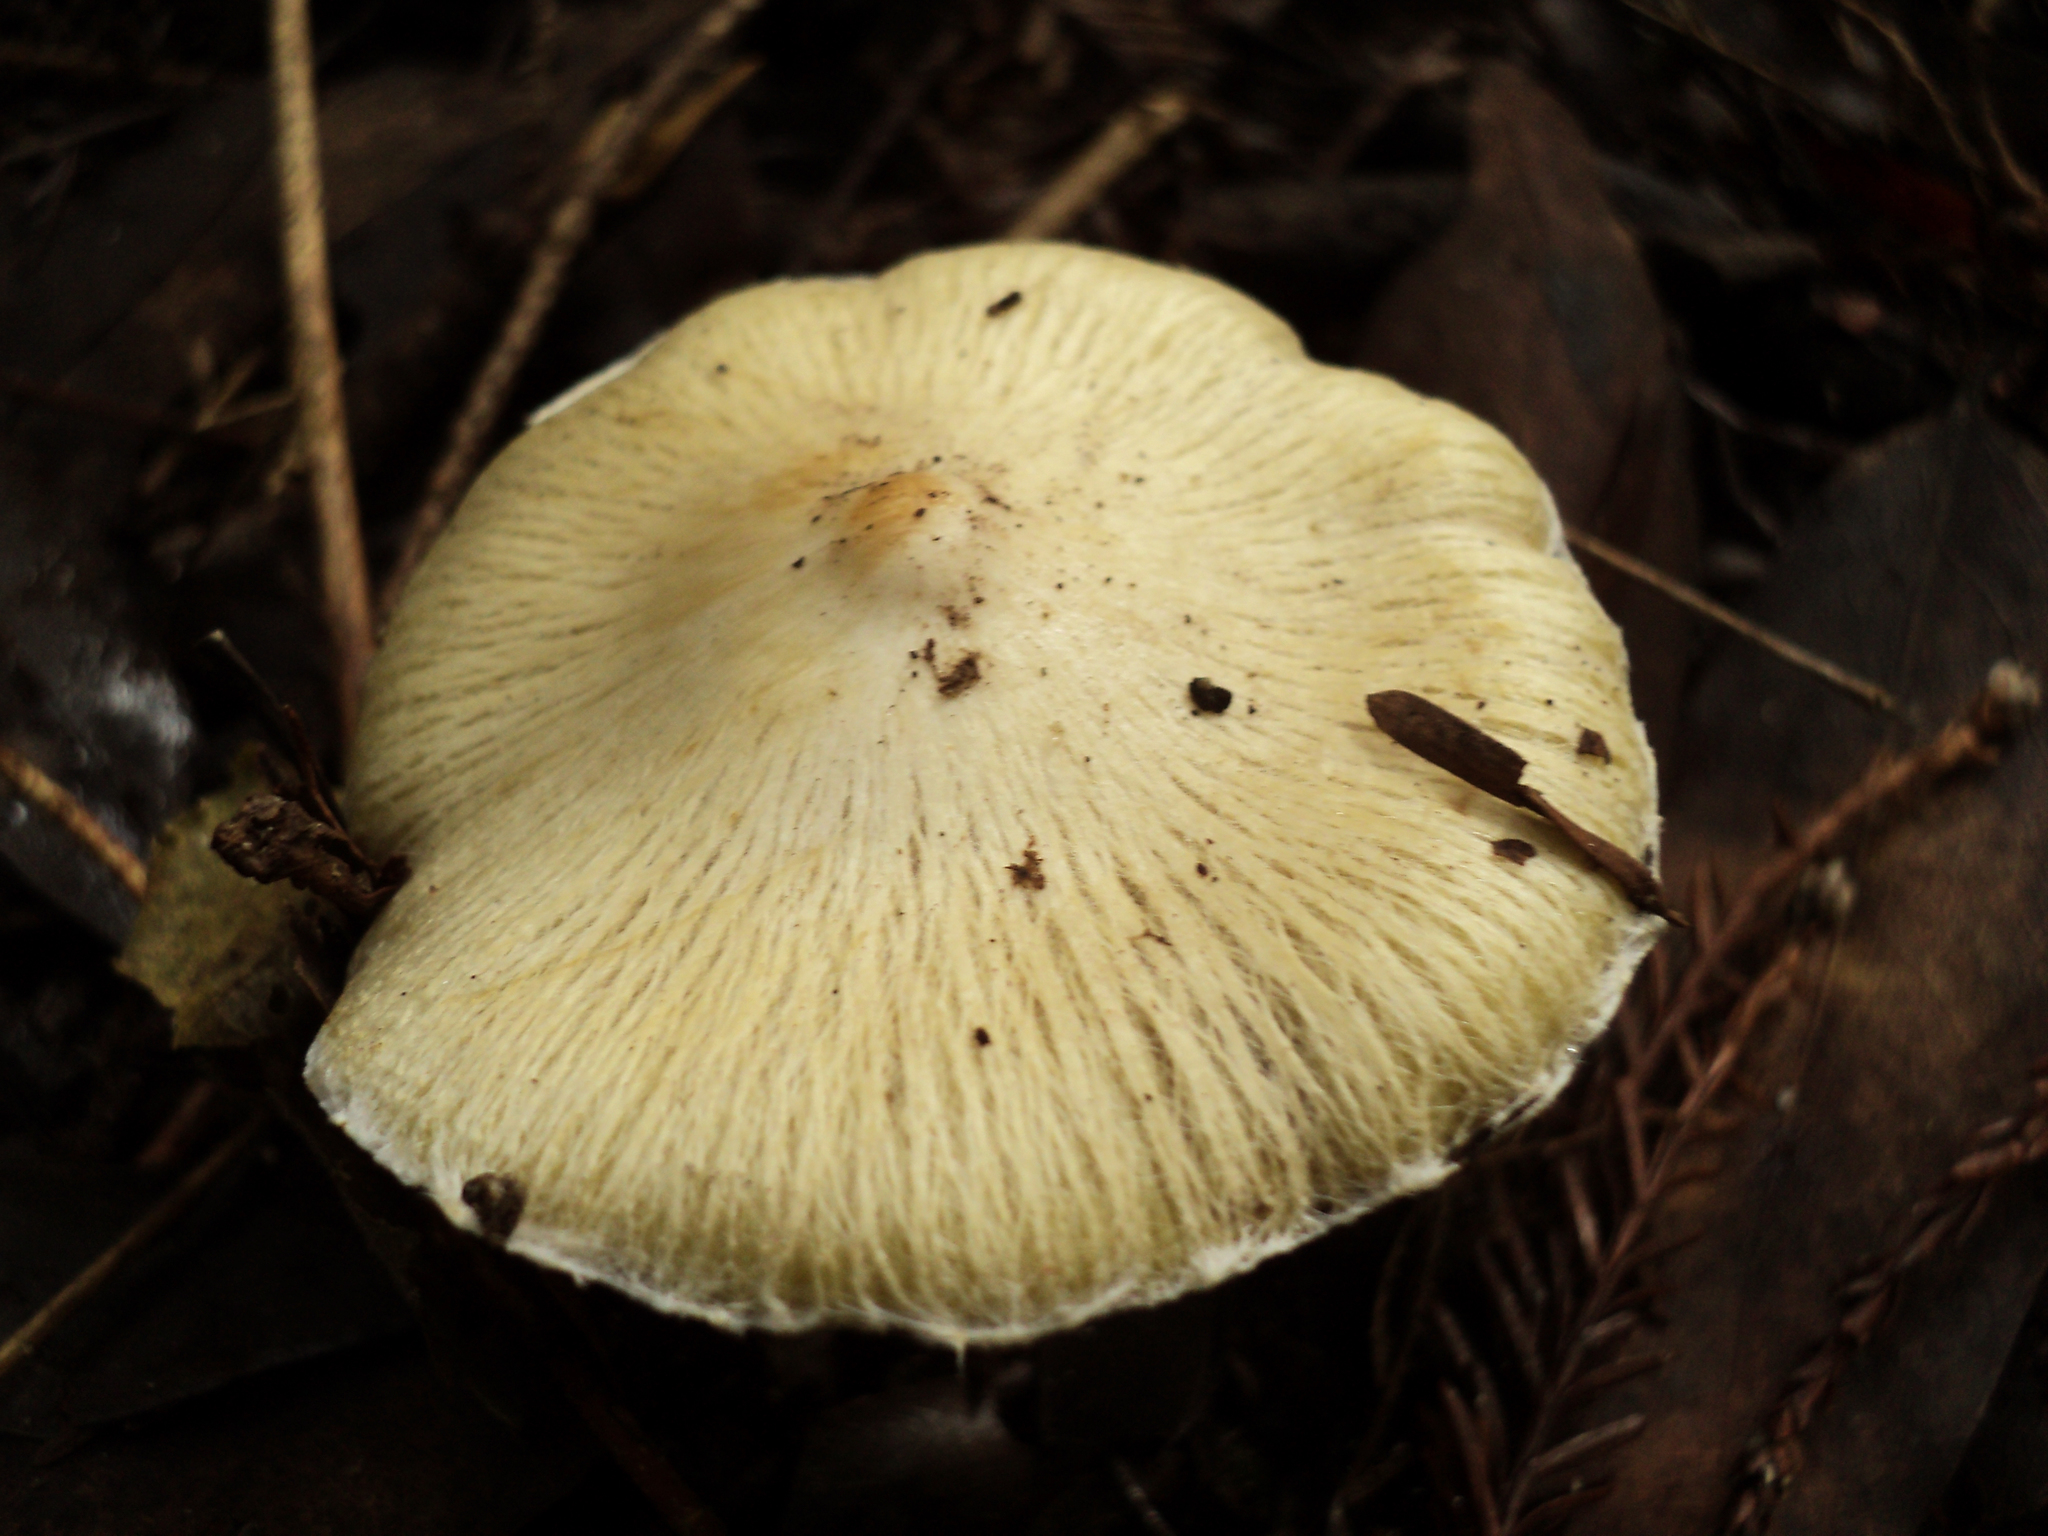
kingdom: Fungi
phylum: Basidiomycota
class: Agaricomycetes
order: Agaricales
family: Inocybaceae
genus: Pseudosperma
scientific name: Pseudosperma sororium
